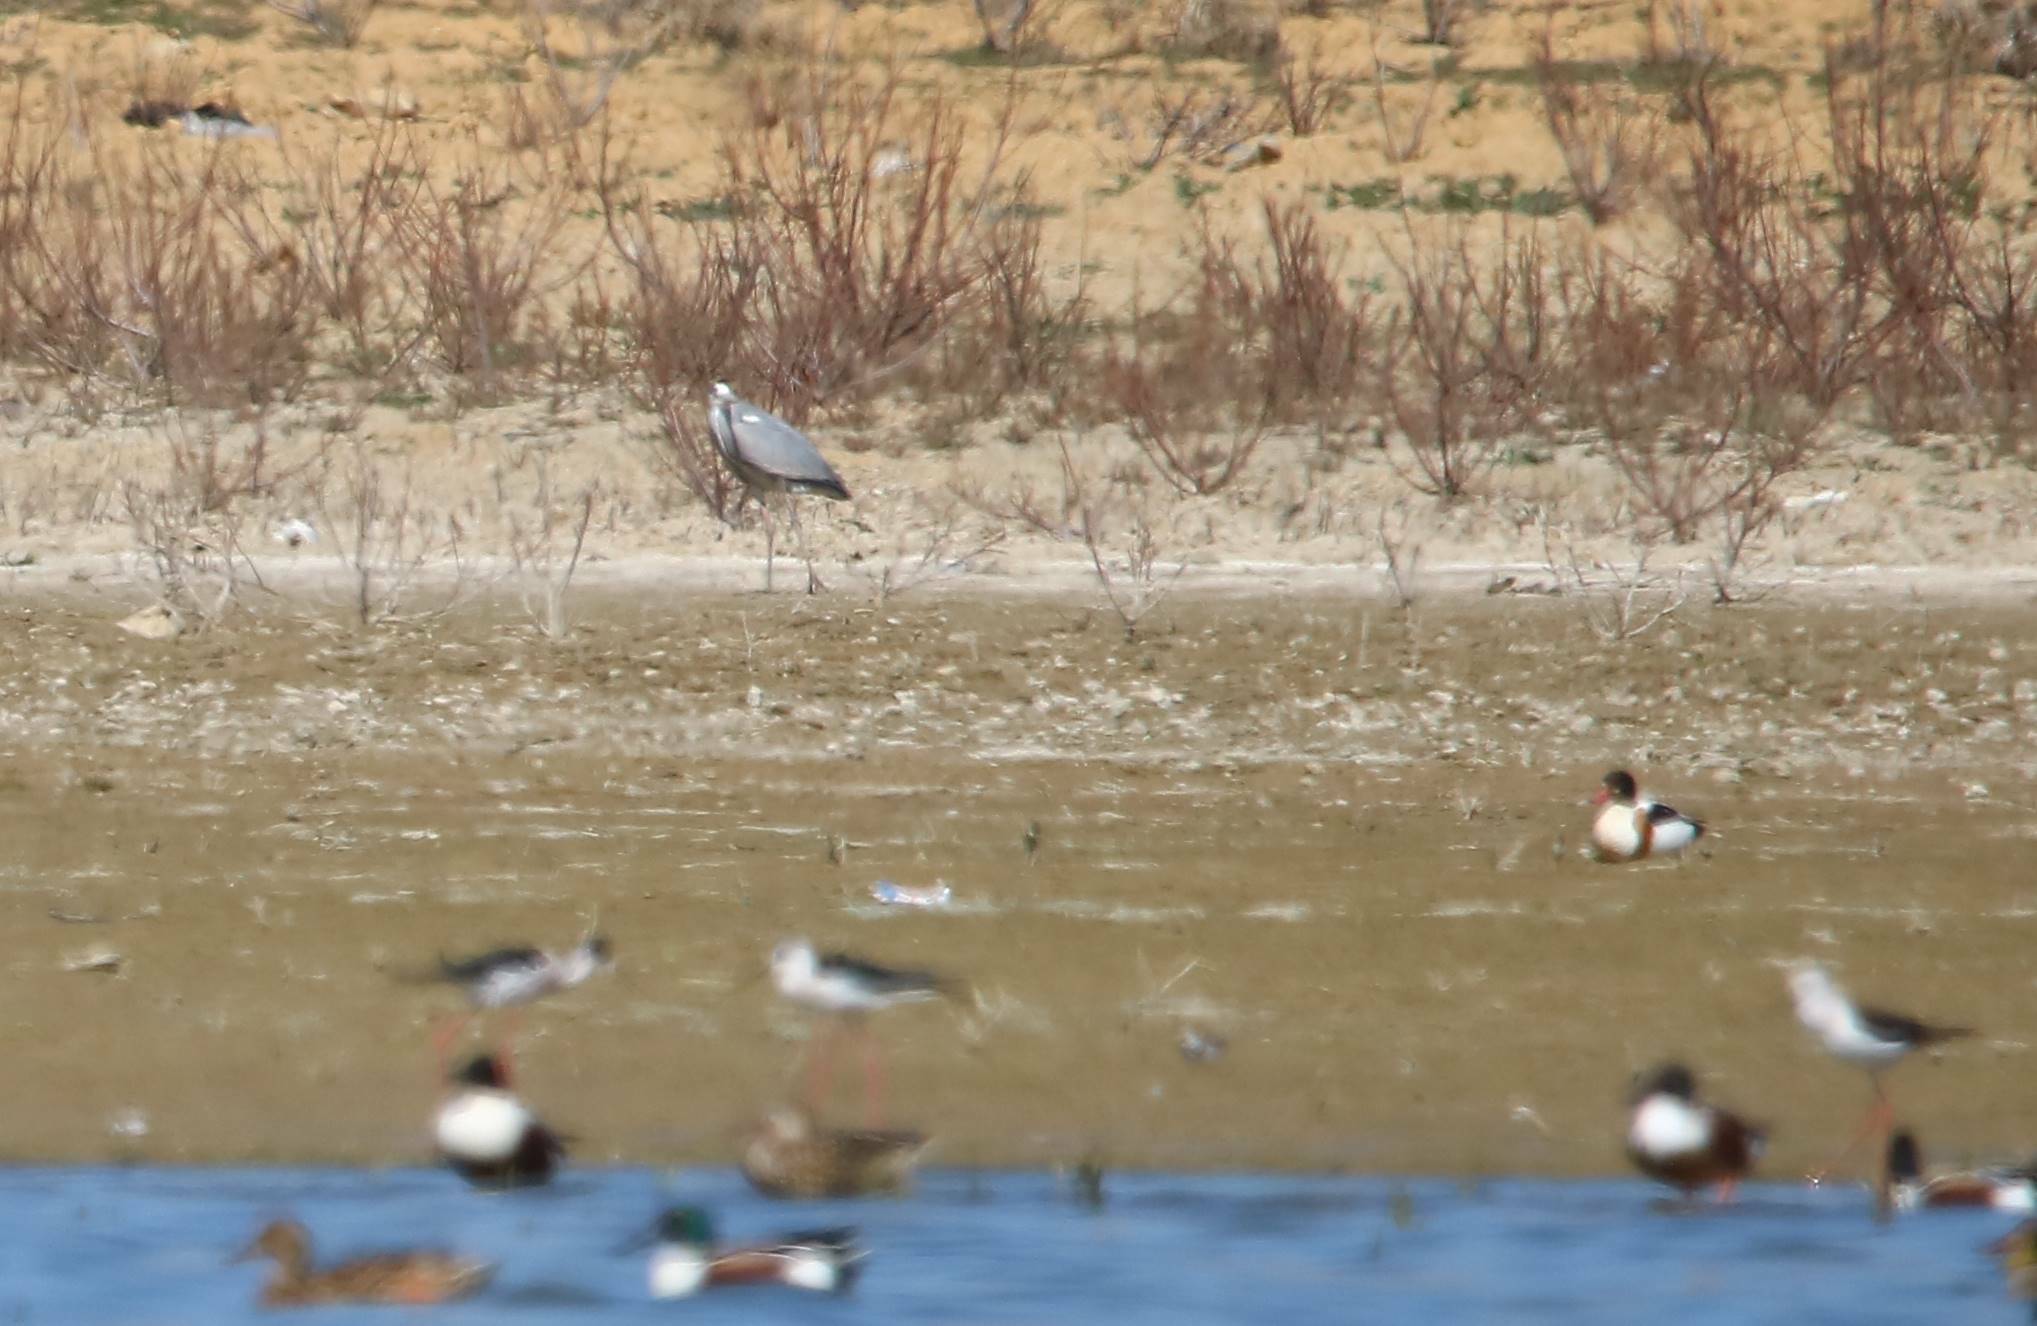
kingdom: Animalia
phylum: Chordata
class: Aves
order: Pelecaniformes
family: Ardeidae
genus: Ardea
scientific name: Ardea cinerea
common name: Grey heron
